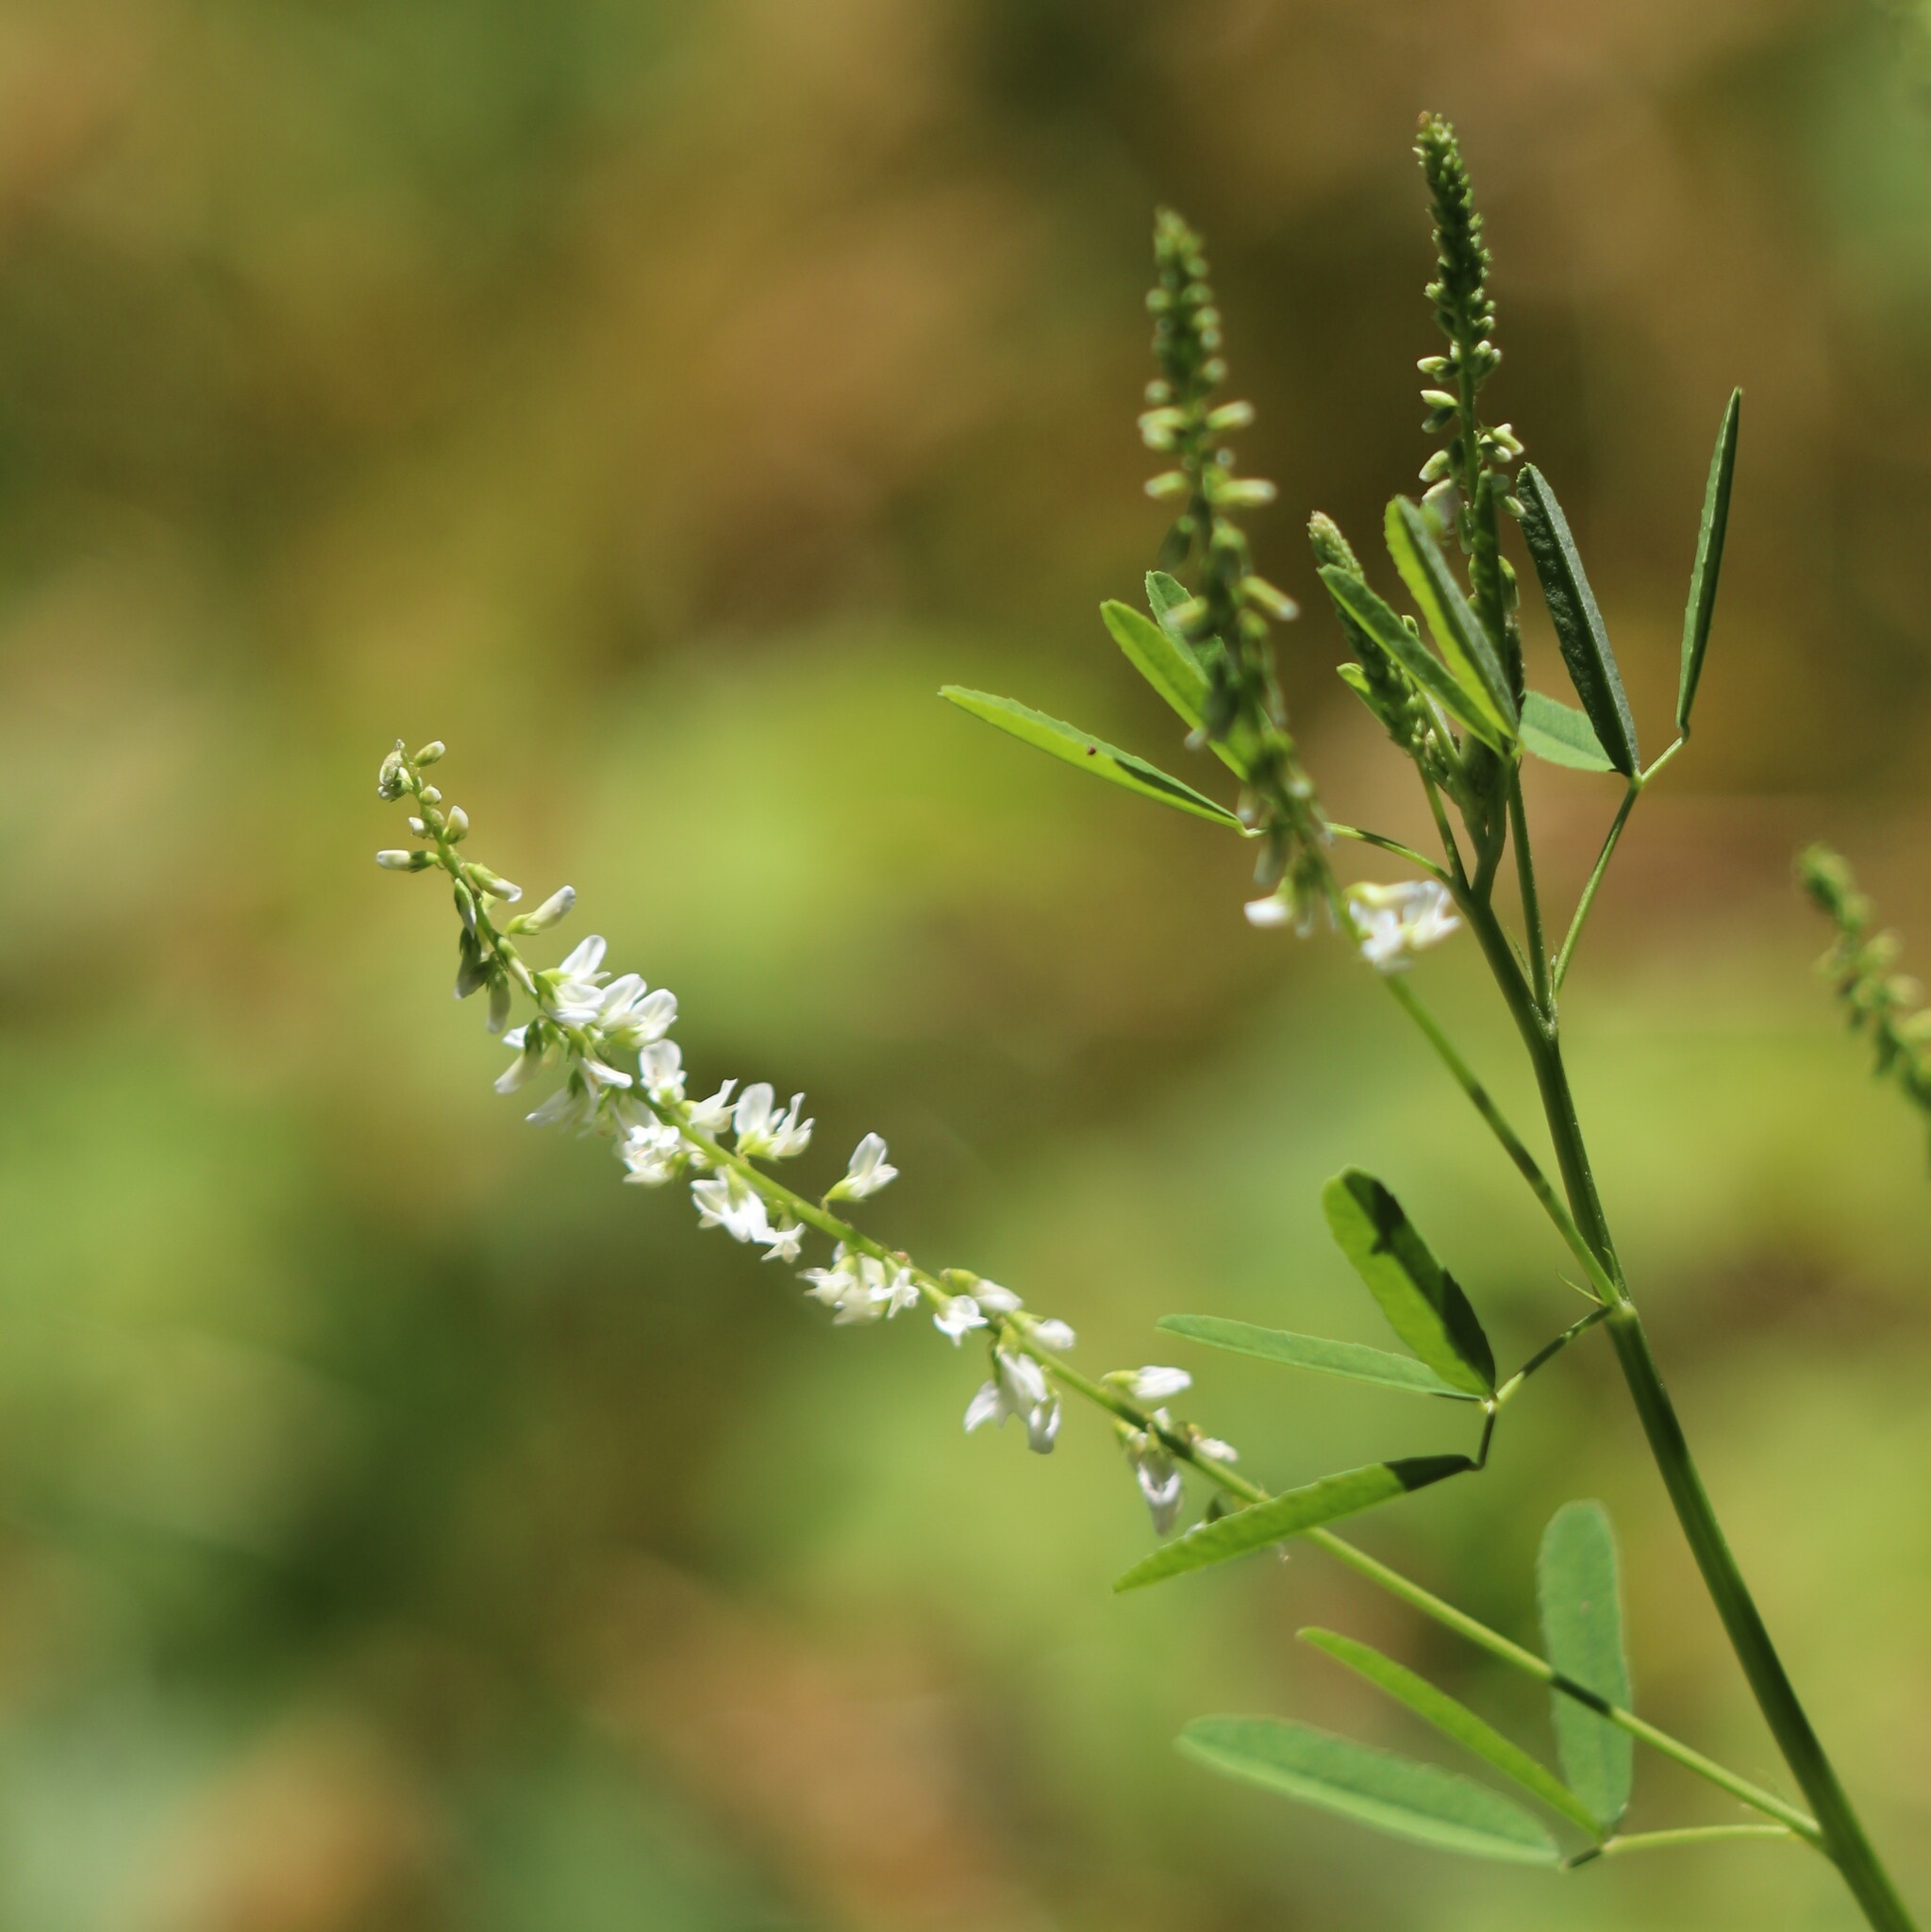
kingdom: Plantae
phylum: Tracheophyta
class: Magnoliopsida
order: Fabales
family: Fabaceae
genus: Melilotus
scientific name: Melilotus albus
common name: White melilot
